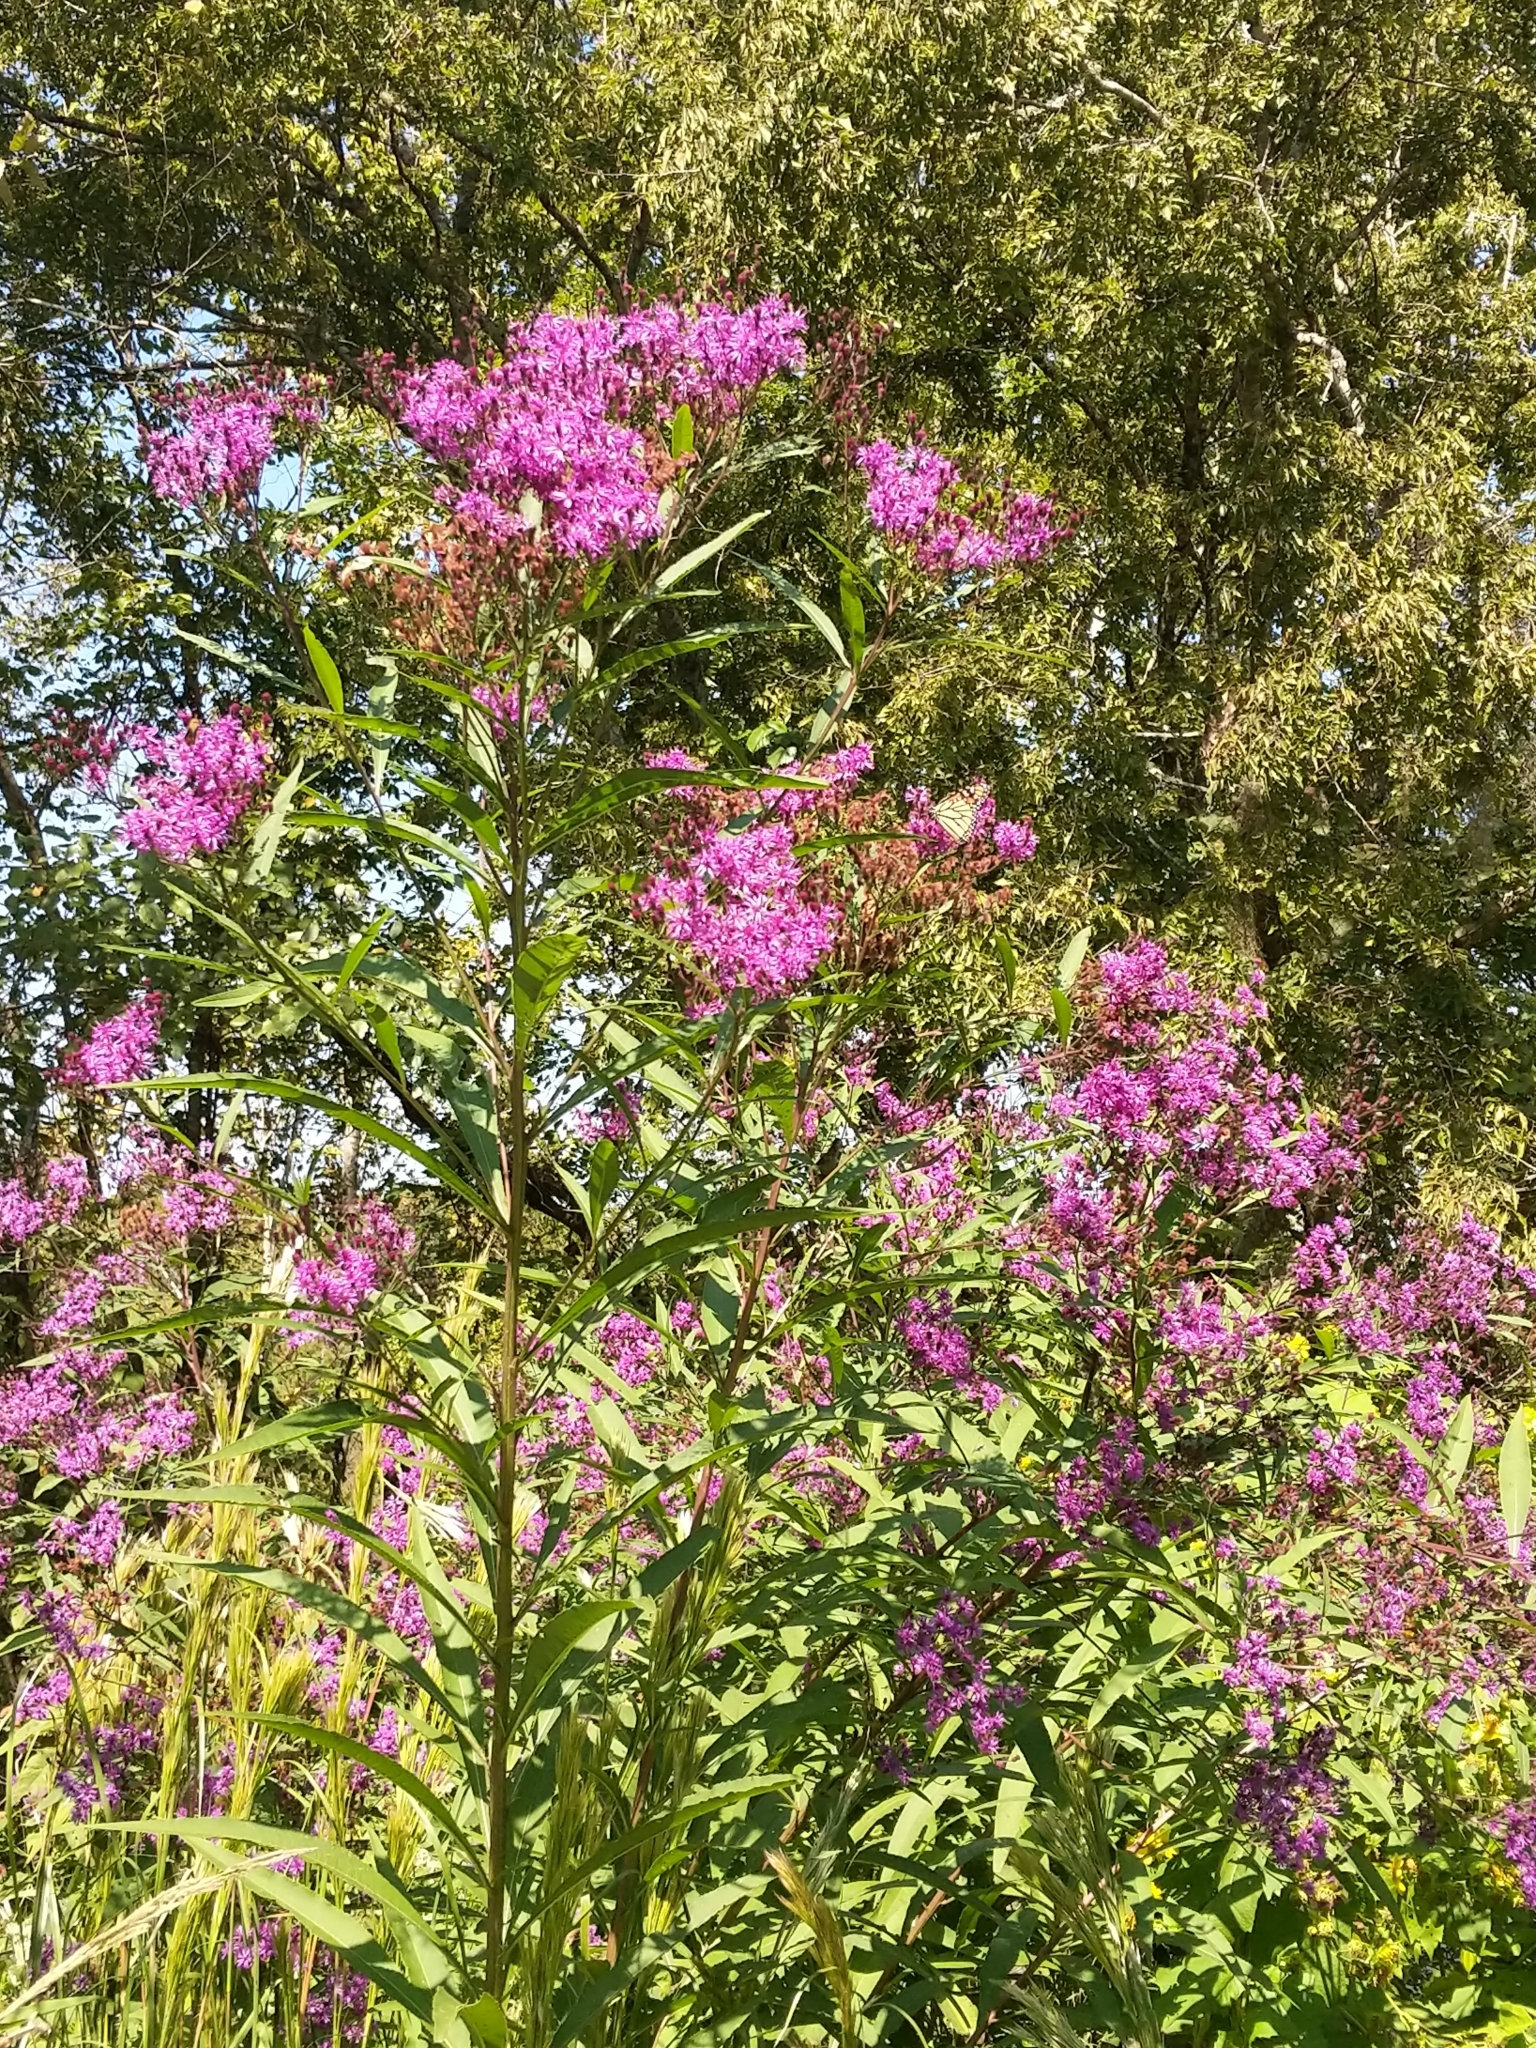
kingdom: Plantae
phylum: Tracheophyta
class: Magnoliopsida
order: Asterales
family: Asteraceae
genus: Vernonia
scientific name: Vernonia gigantea
